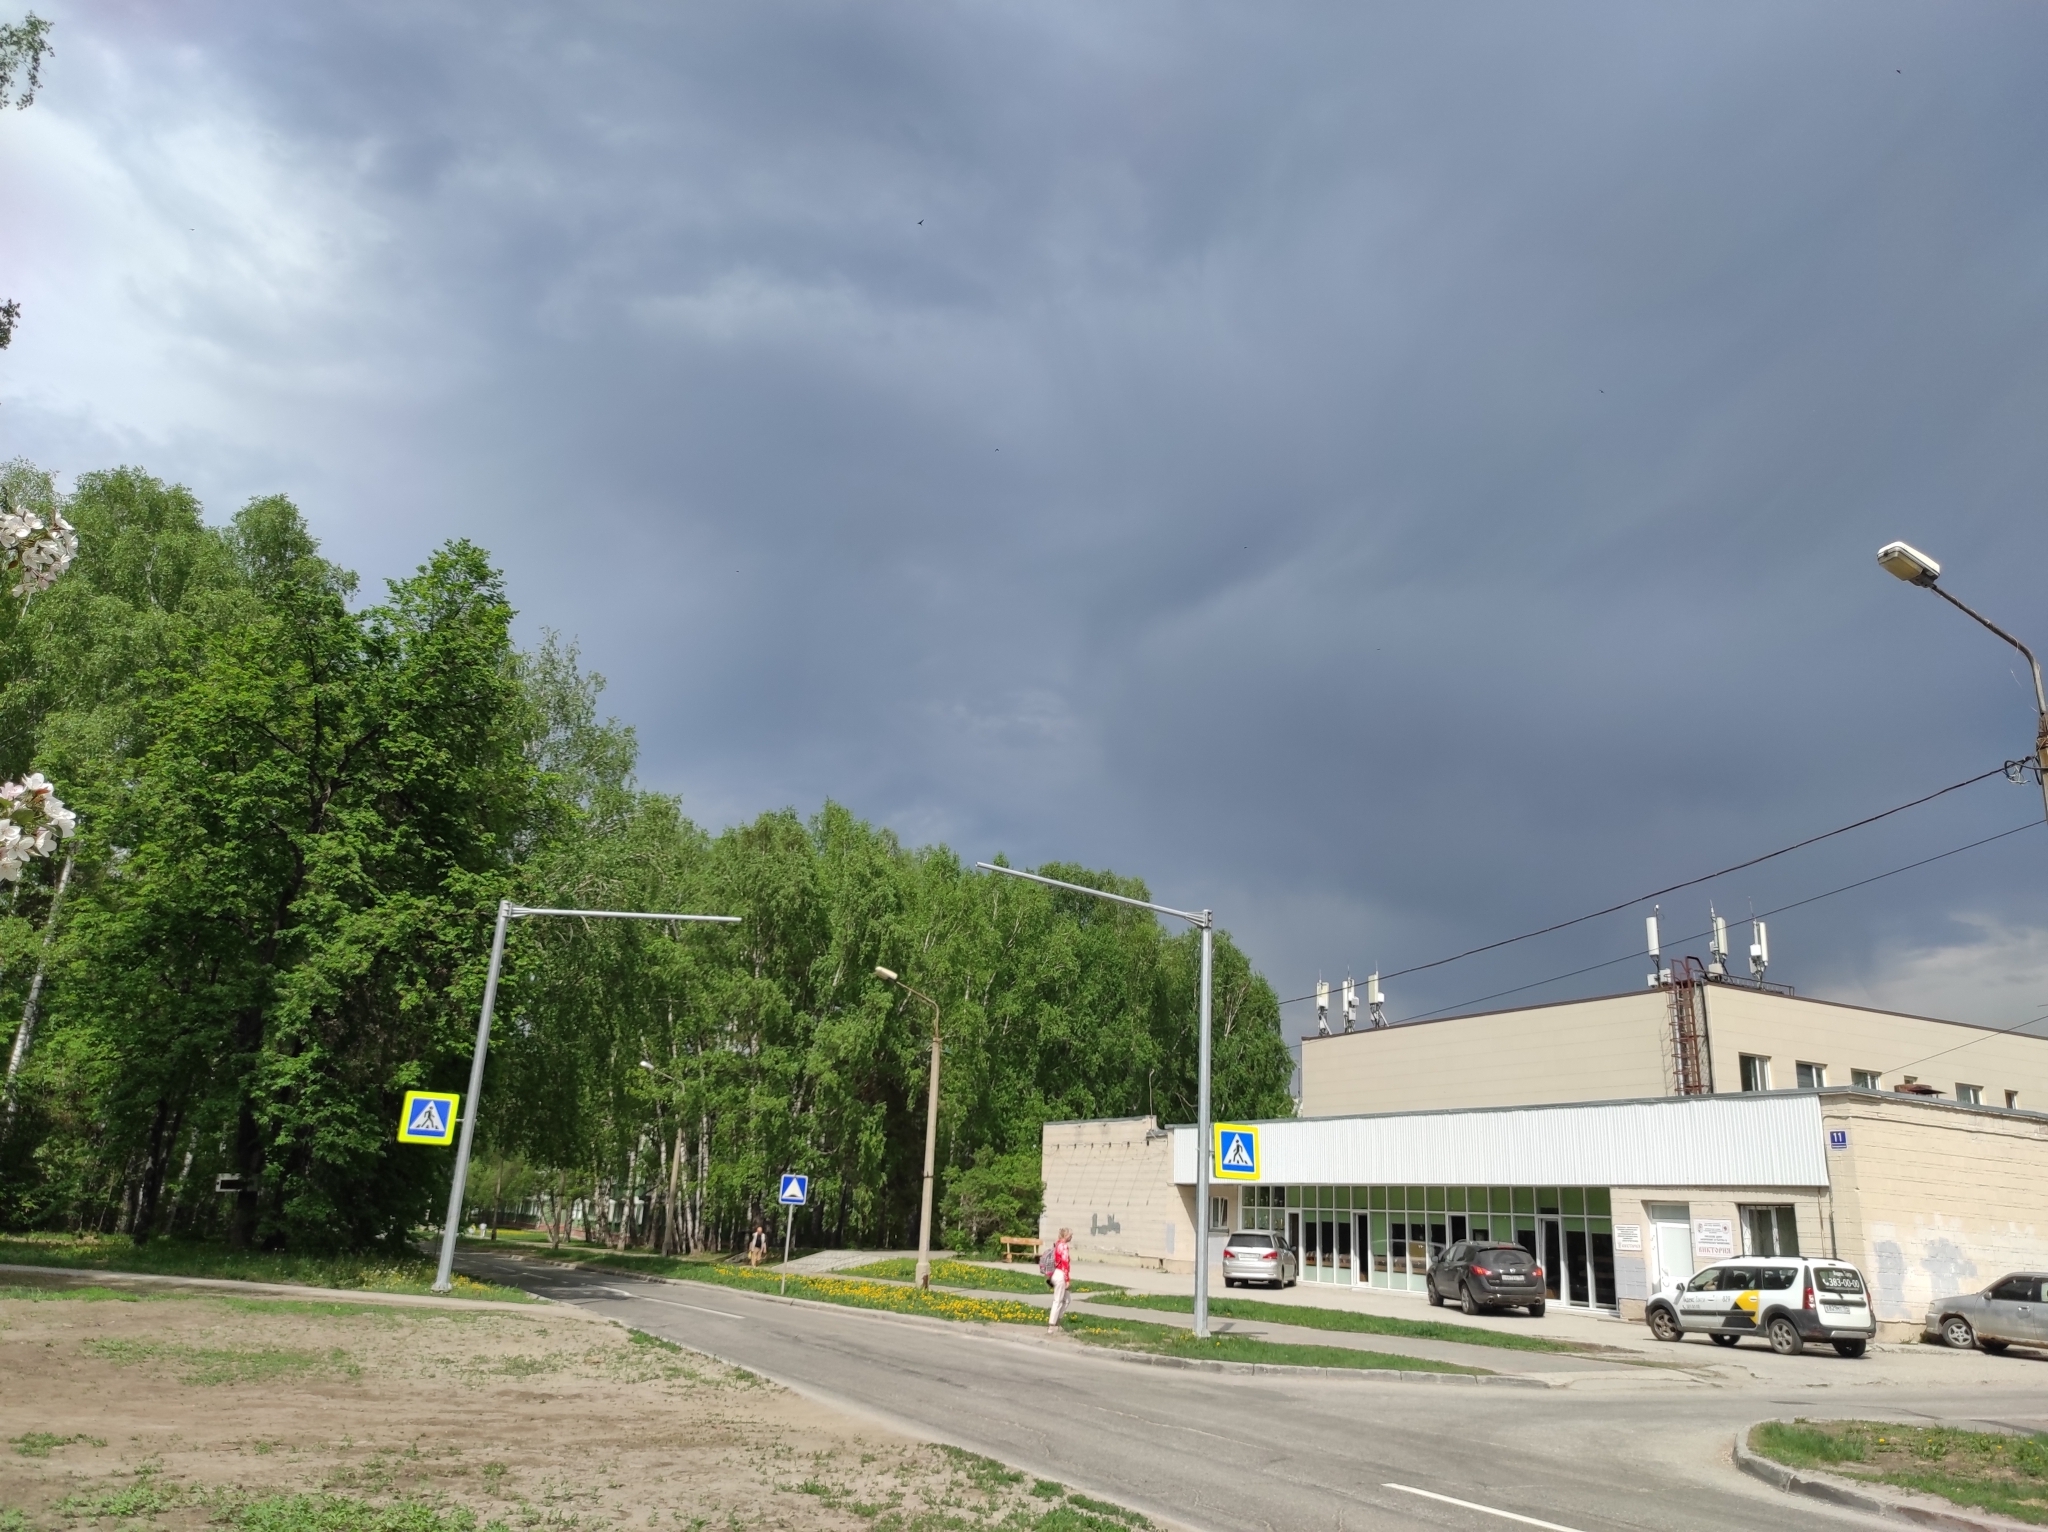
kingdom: Plantae
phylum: Tracheophyta
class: Magnoliopsida
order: Fagales
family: Betulaceae
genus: Betula
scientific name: Betula pendula
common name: Silver birch
